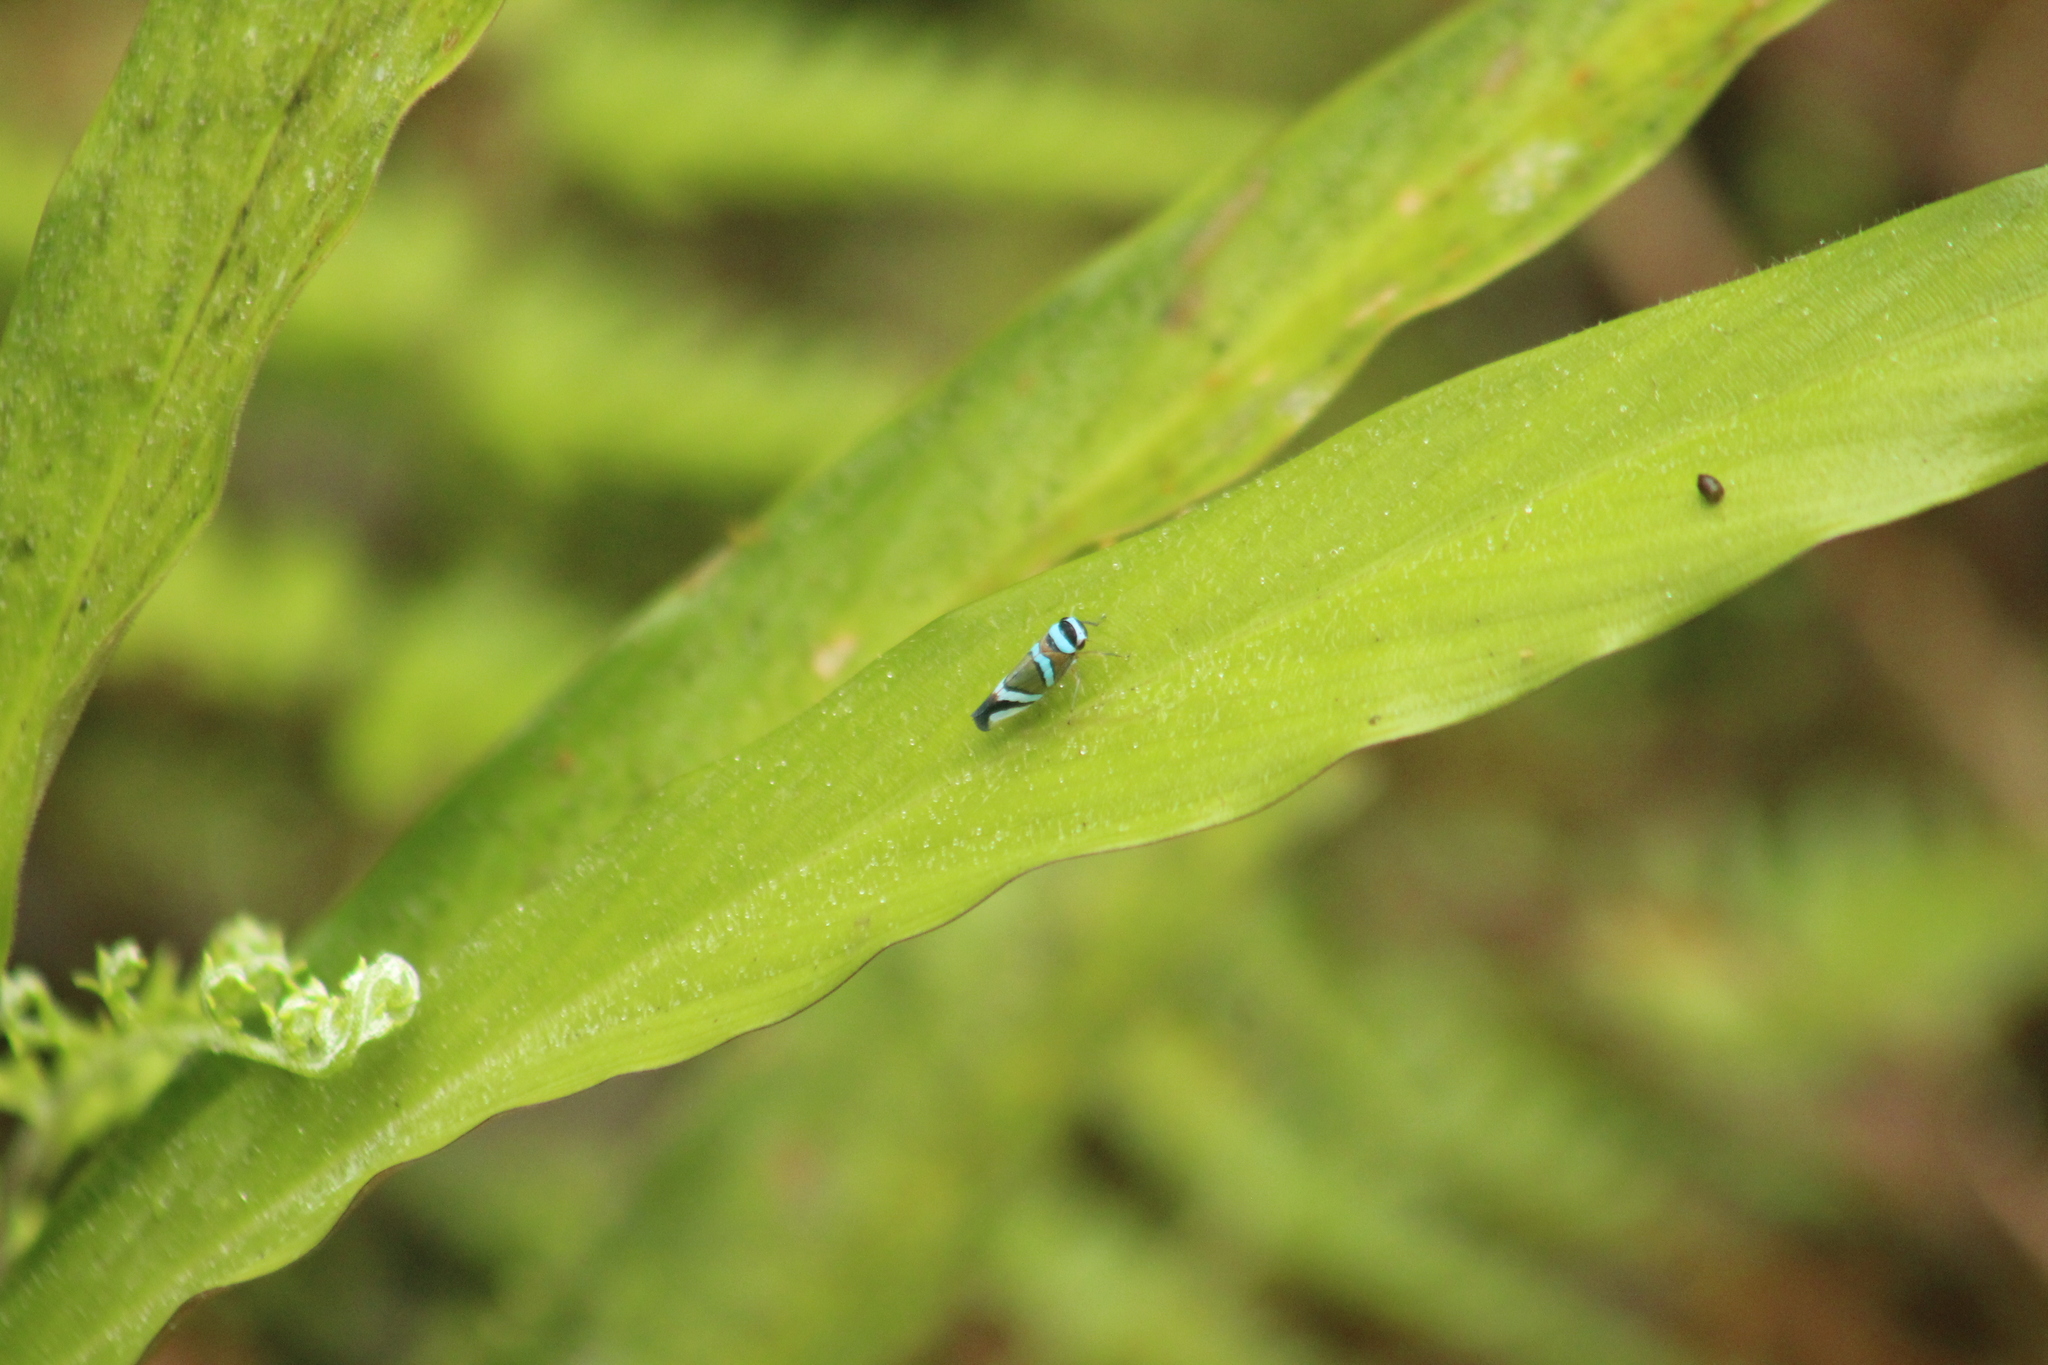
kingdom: Animalia
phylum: Arthropoda
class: Insecta
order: Hemiptera
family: Cicadellidae
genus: Macugonalia
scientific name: Macugonalia moesta
